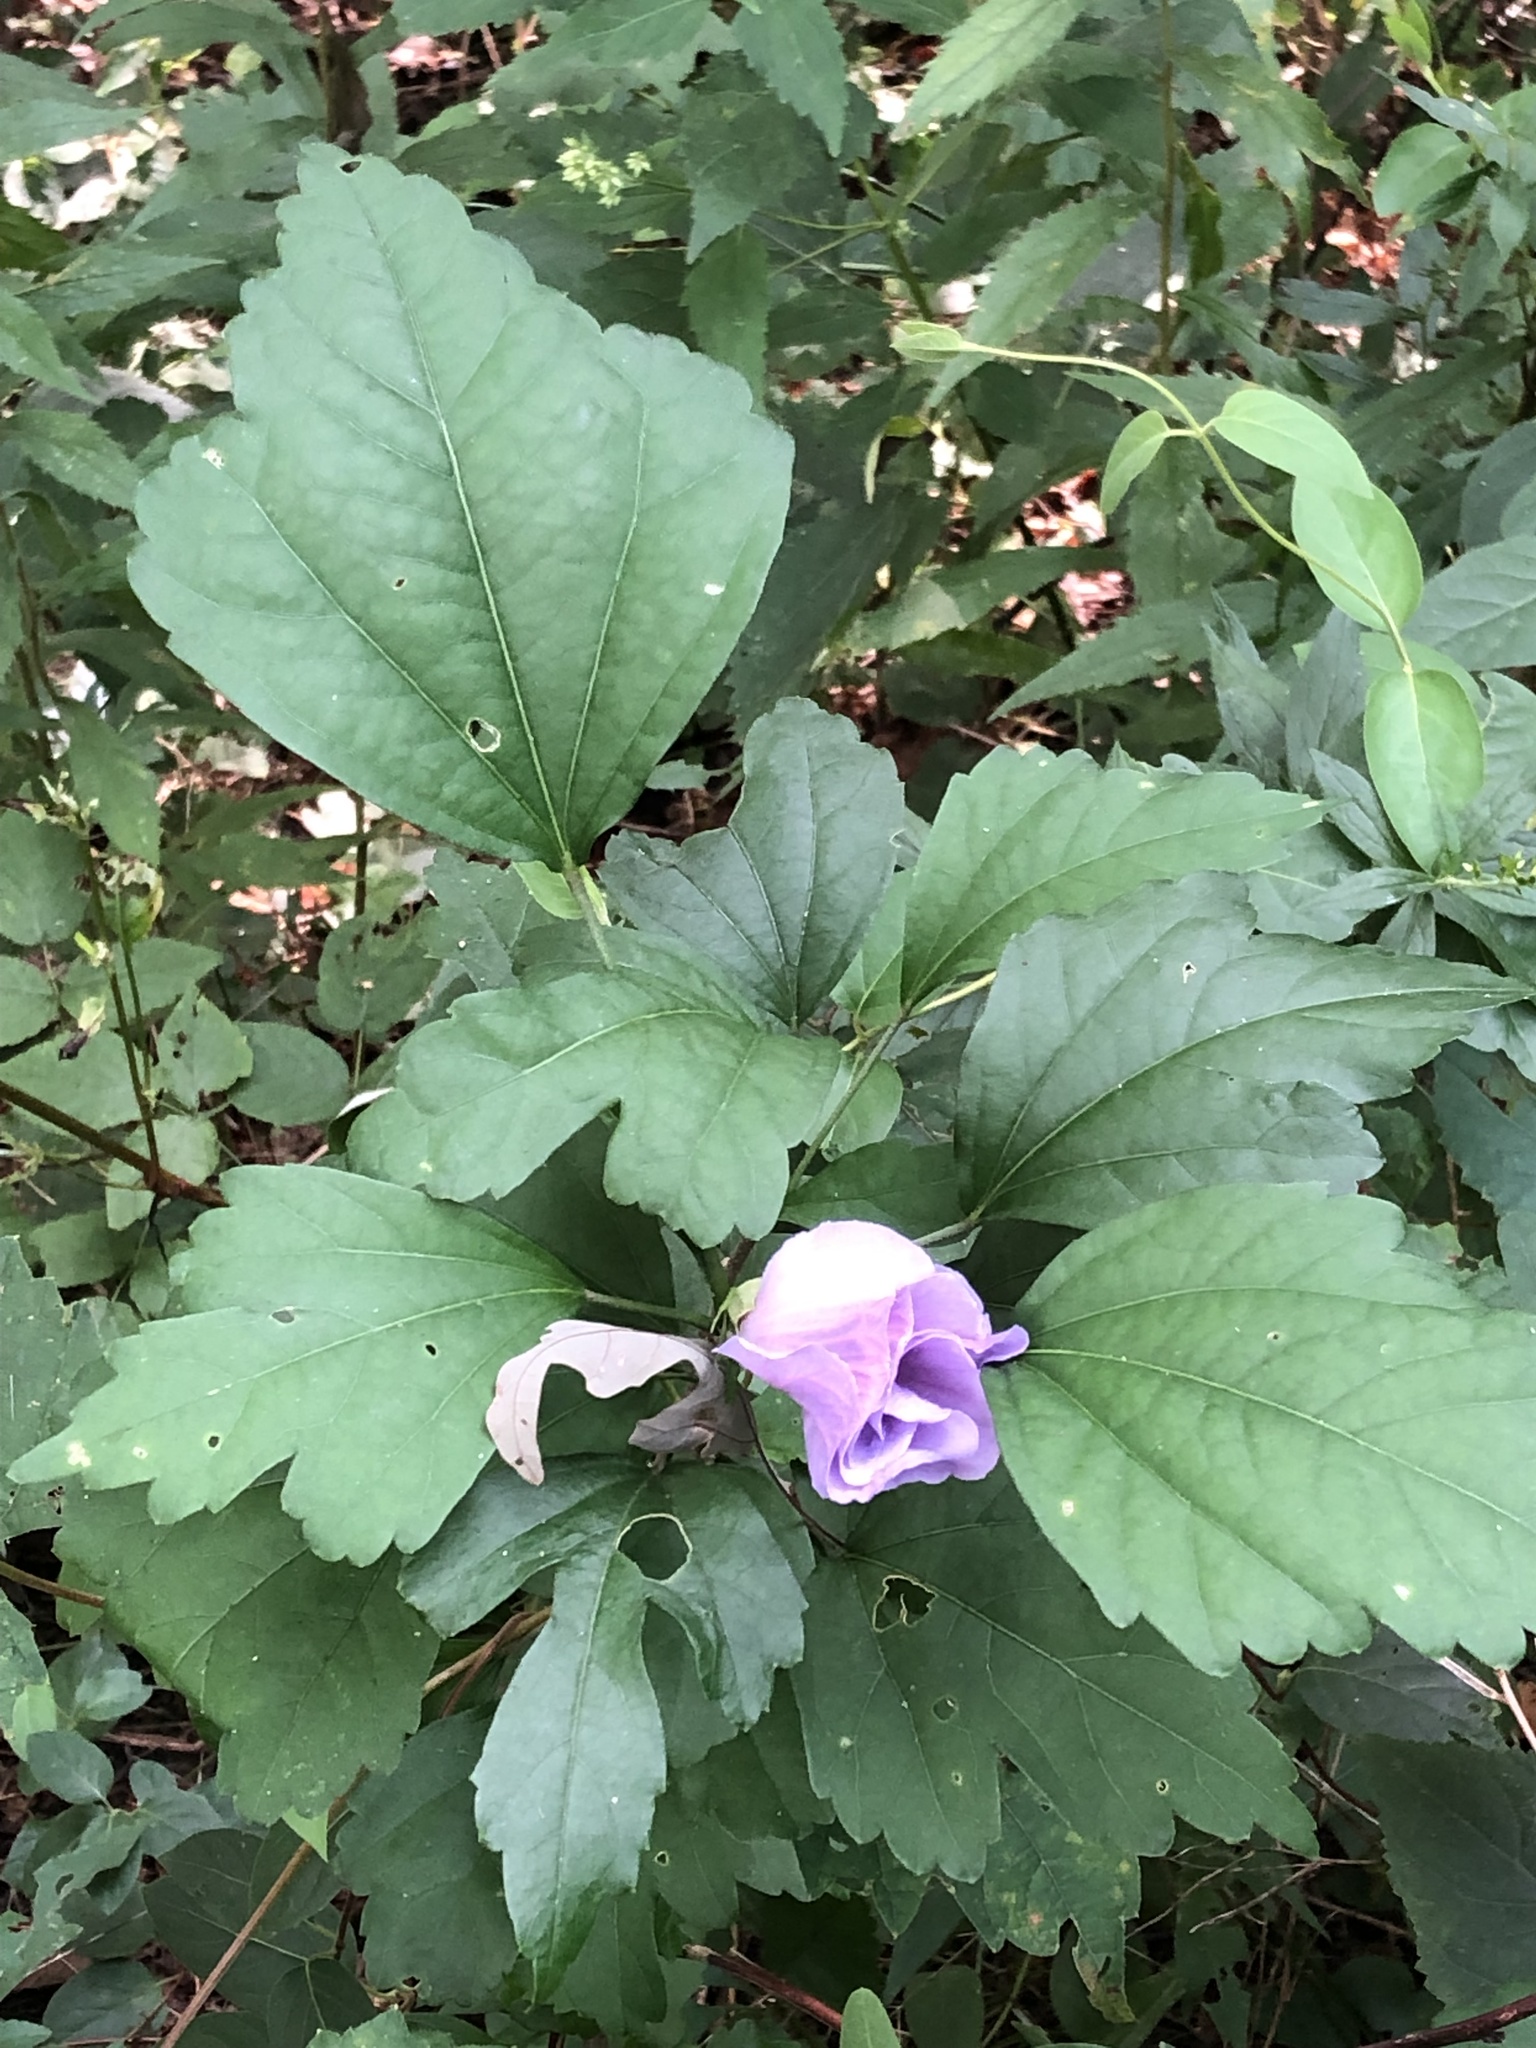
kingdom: Plantae
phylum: Tracheophyta
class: Magnoliopsida
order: Malvales
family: Malvaceae
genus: Hibiscus
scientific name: Hibiscus syriacus
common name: Syrian ketmia
